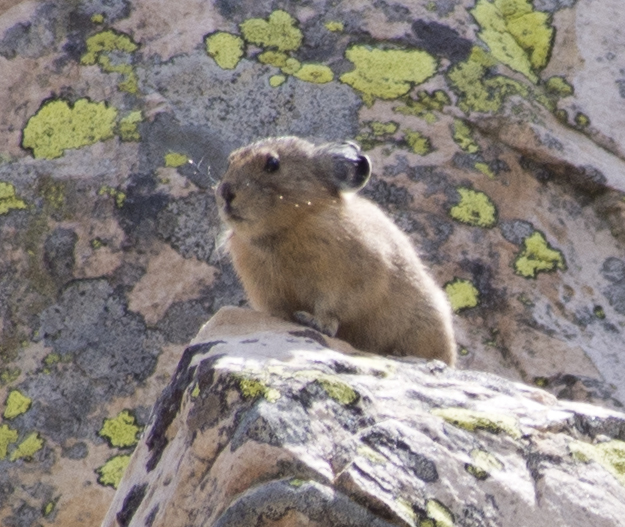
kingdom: Animalia
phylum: Chordata
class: Mammalia
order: Lagomorpha
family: Ochotonidae
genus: Ochotona
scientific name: Ochotona princeps
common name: American pika
